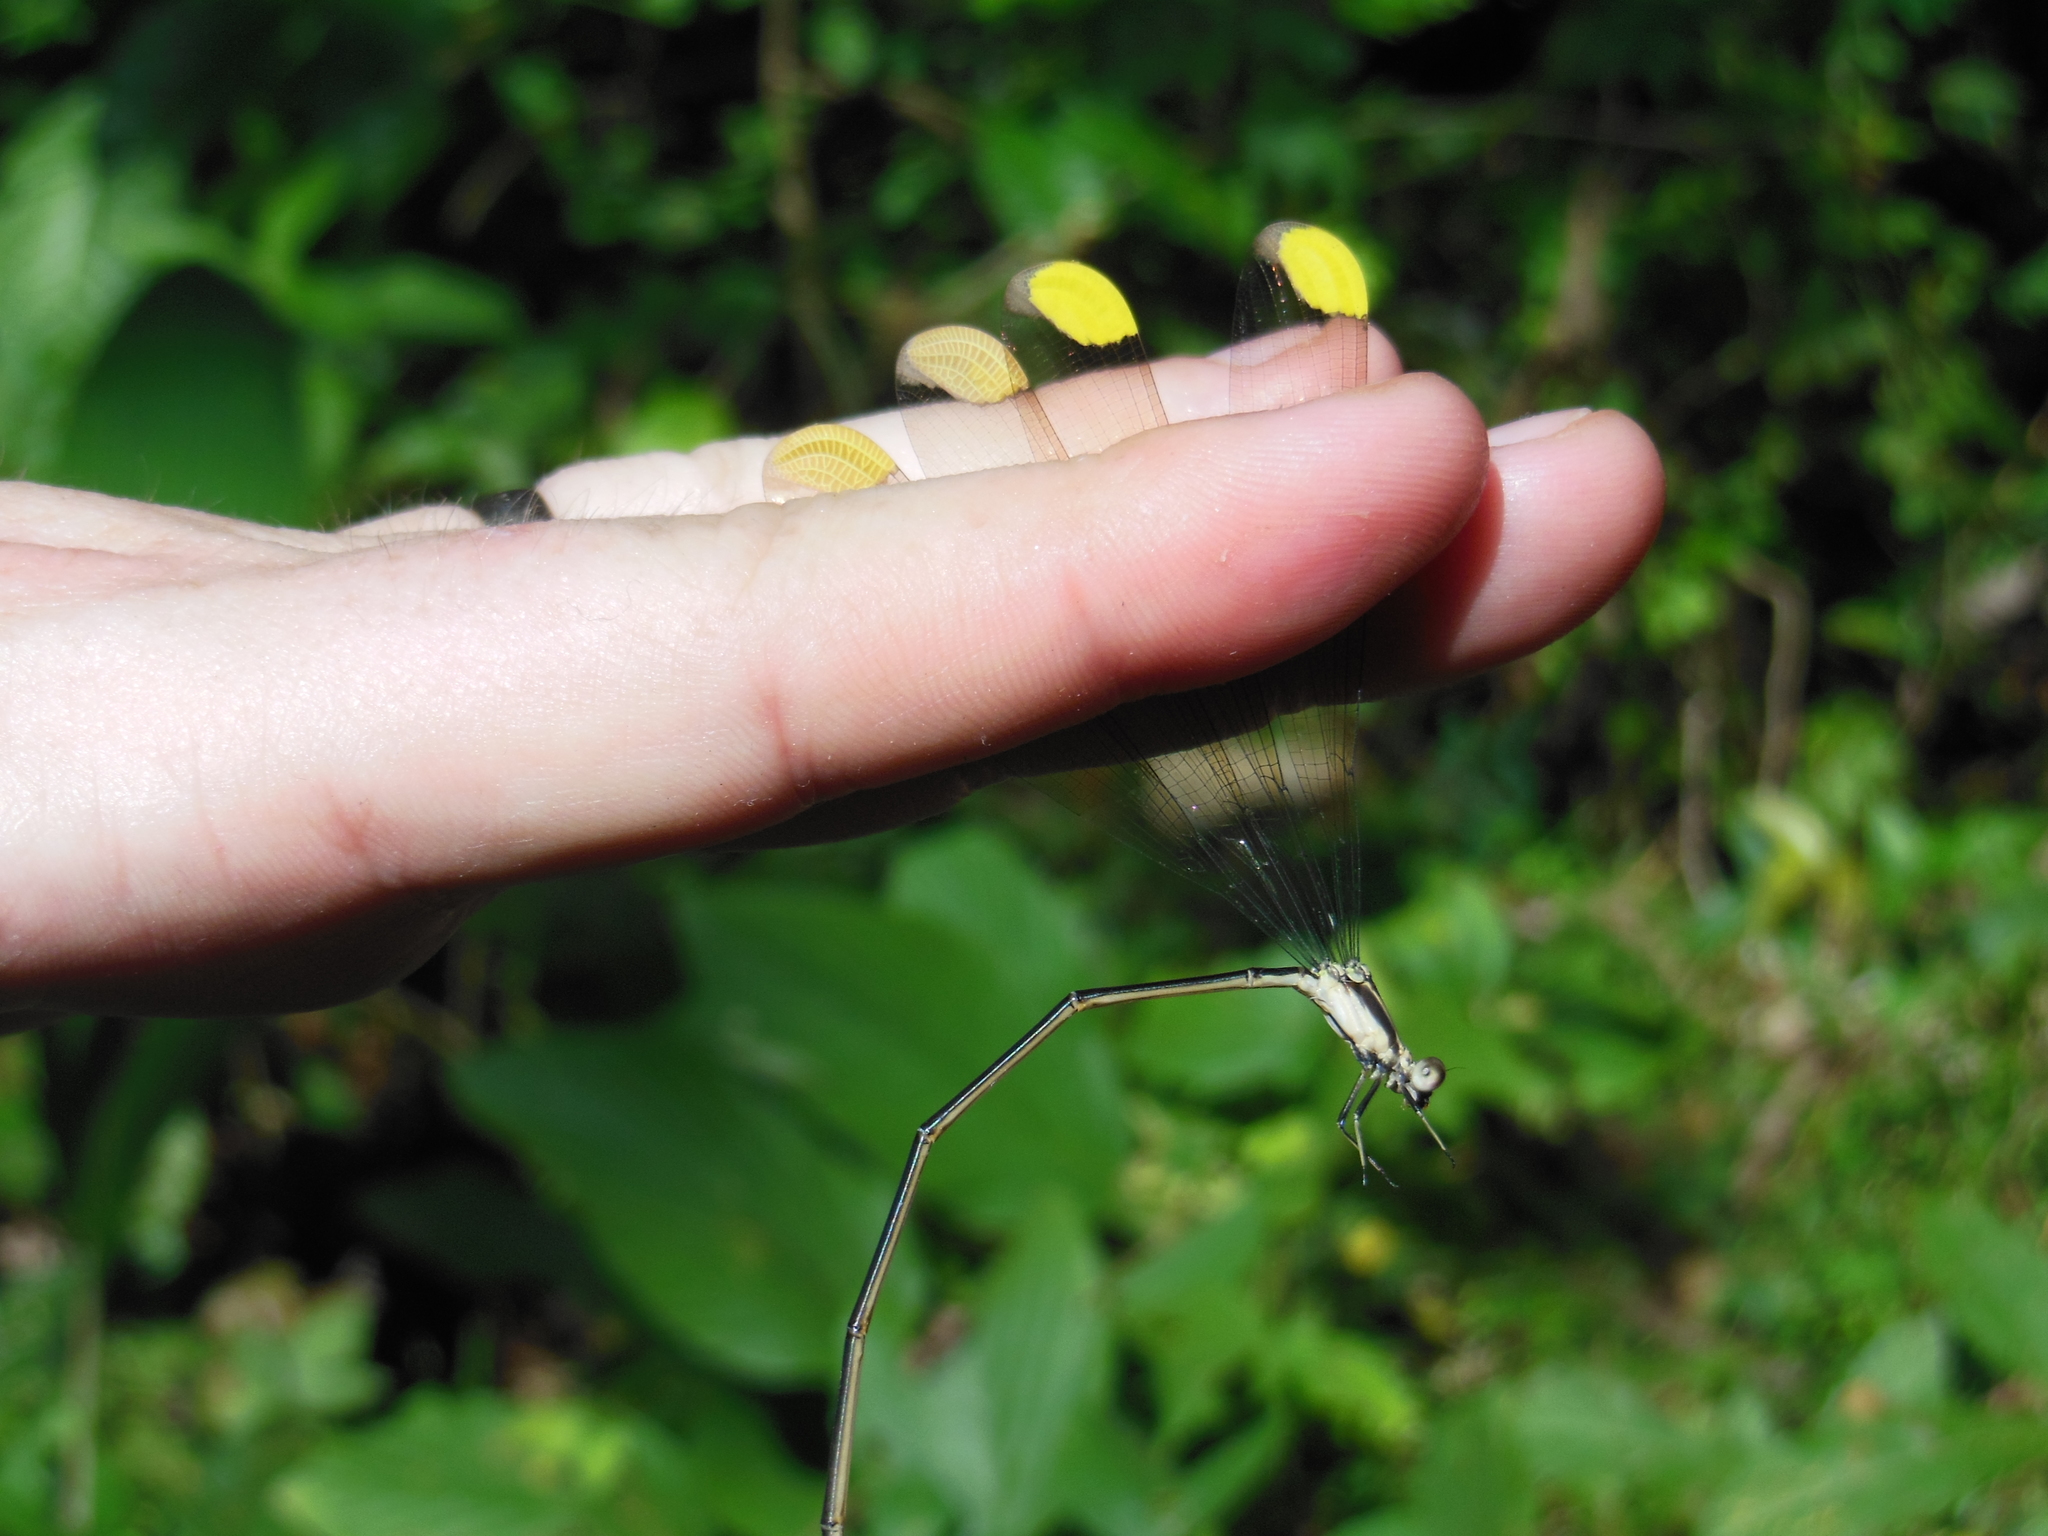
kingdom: Animalia
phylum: Arthropoda
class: Insecta
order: Odonata
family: Coenagrionidae
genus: Mecistogaster
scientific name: Mecistogaster ornata
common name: Ornate helicopter
